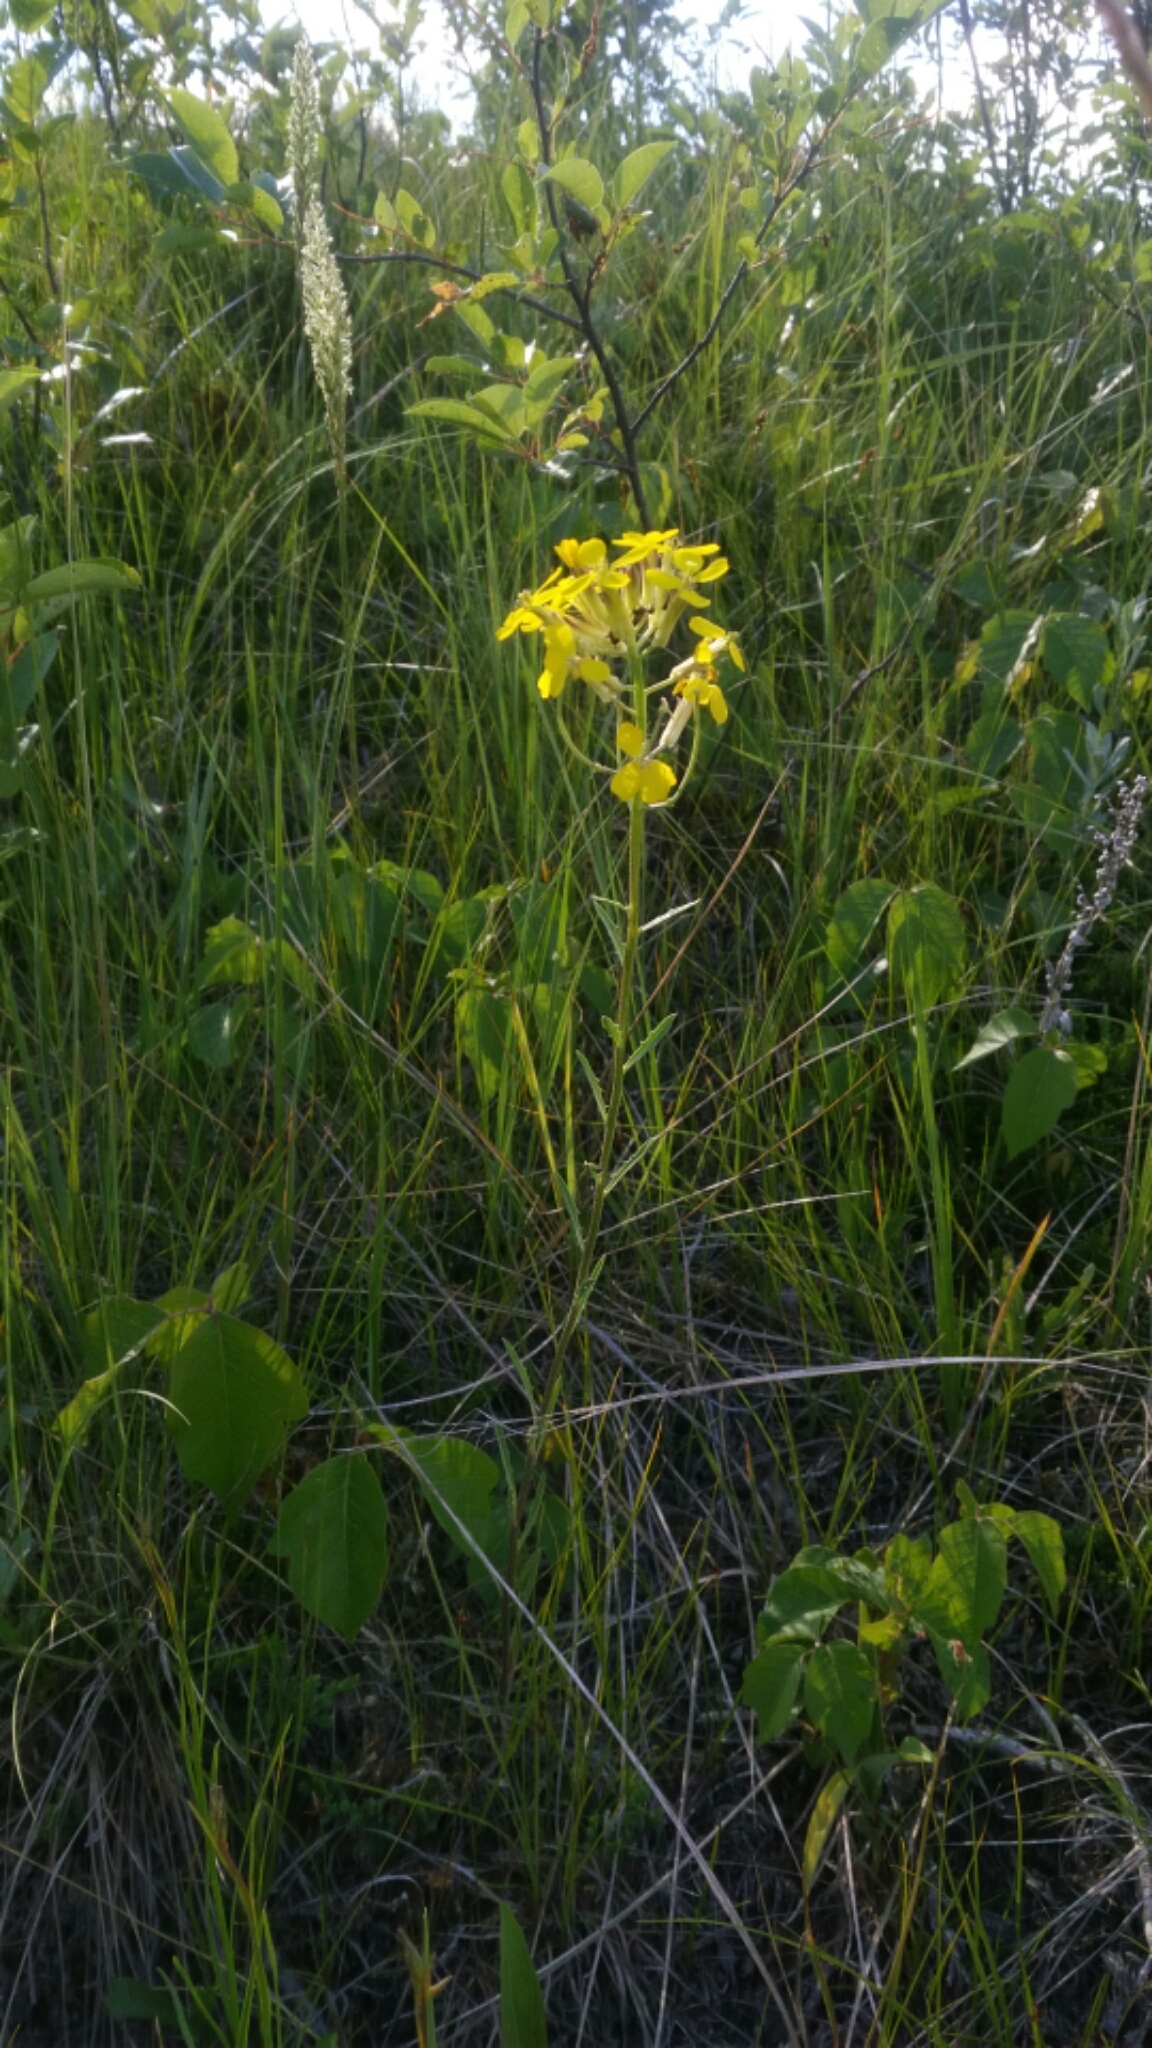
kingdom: Plantae
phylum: Tracheophyta
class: Magnoliopsida
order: Brassicales
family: Brassicaceae
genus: Erysimum
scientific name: Erysimum asperum
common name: Western wallflower
